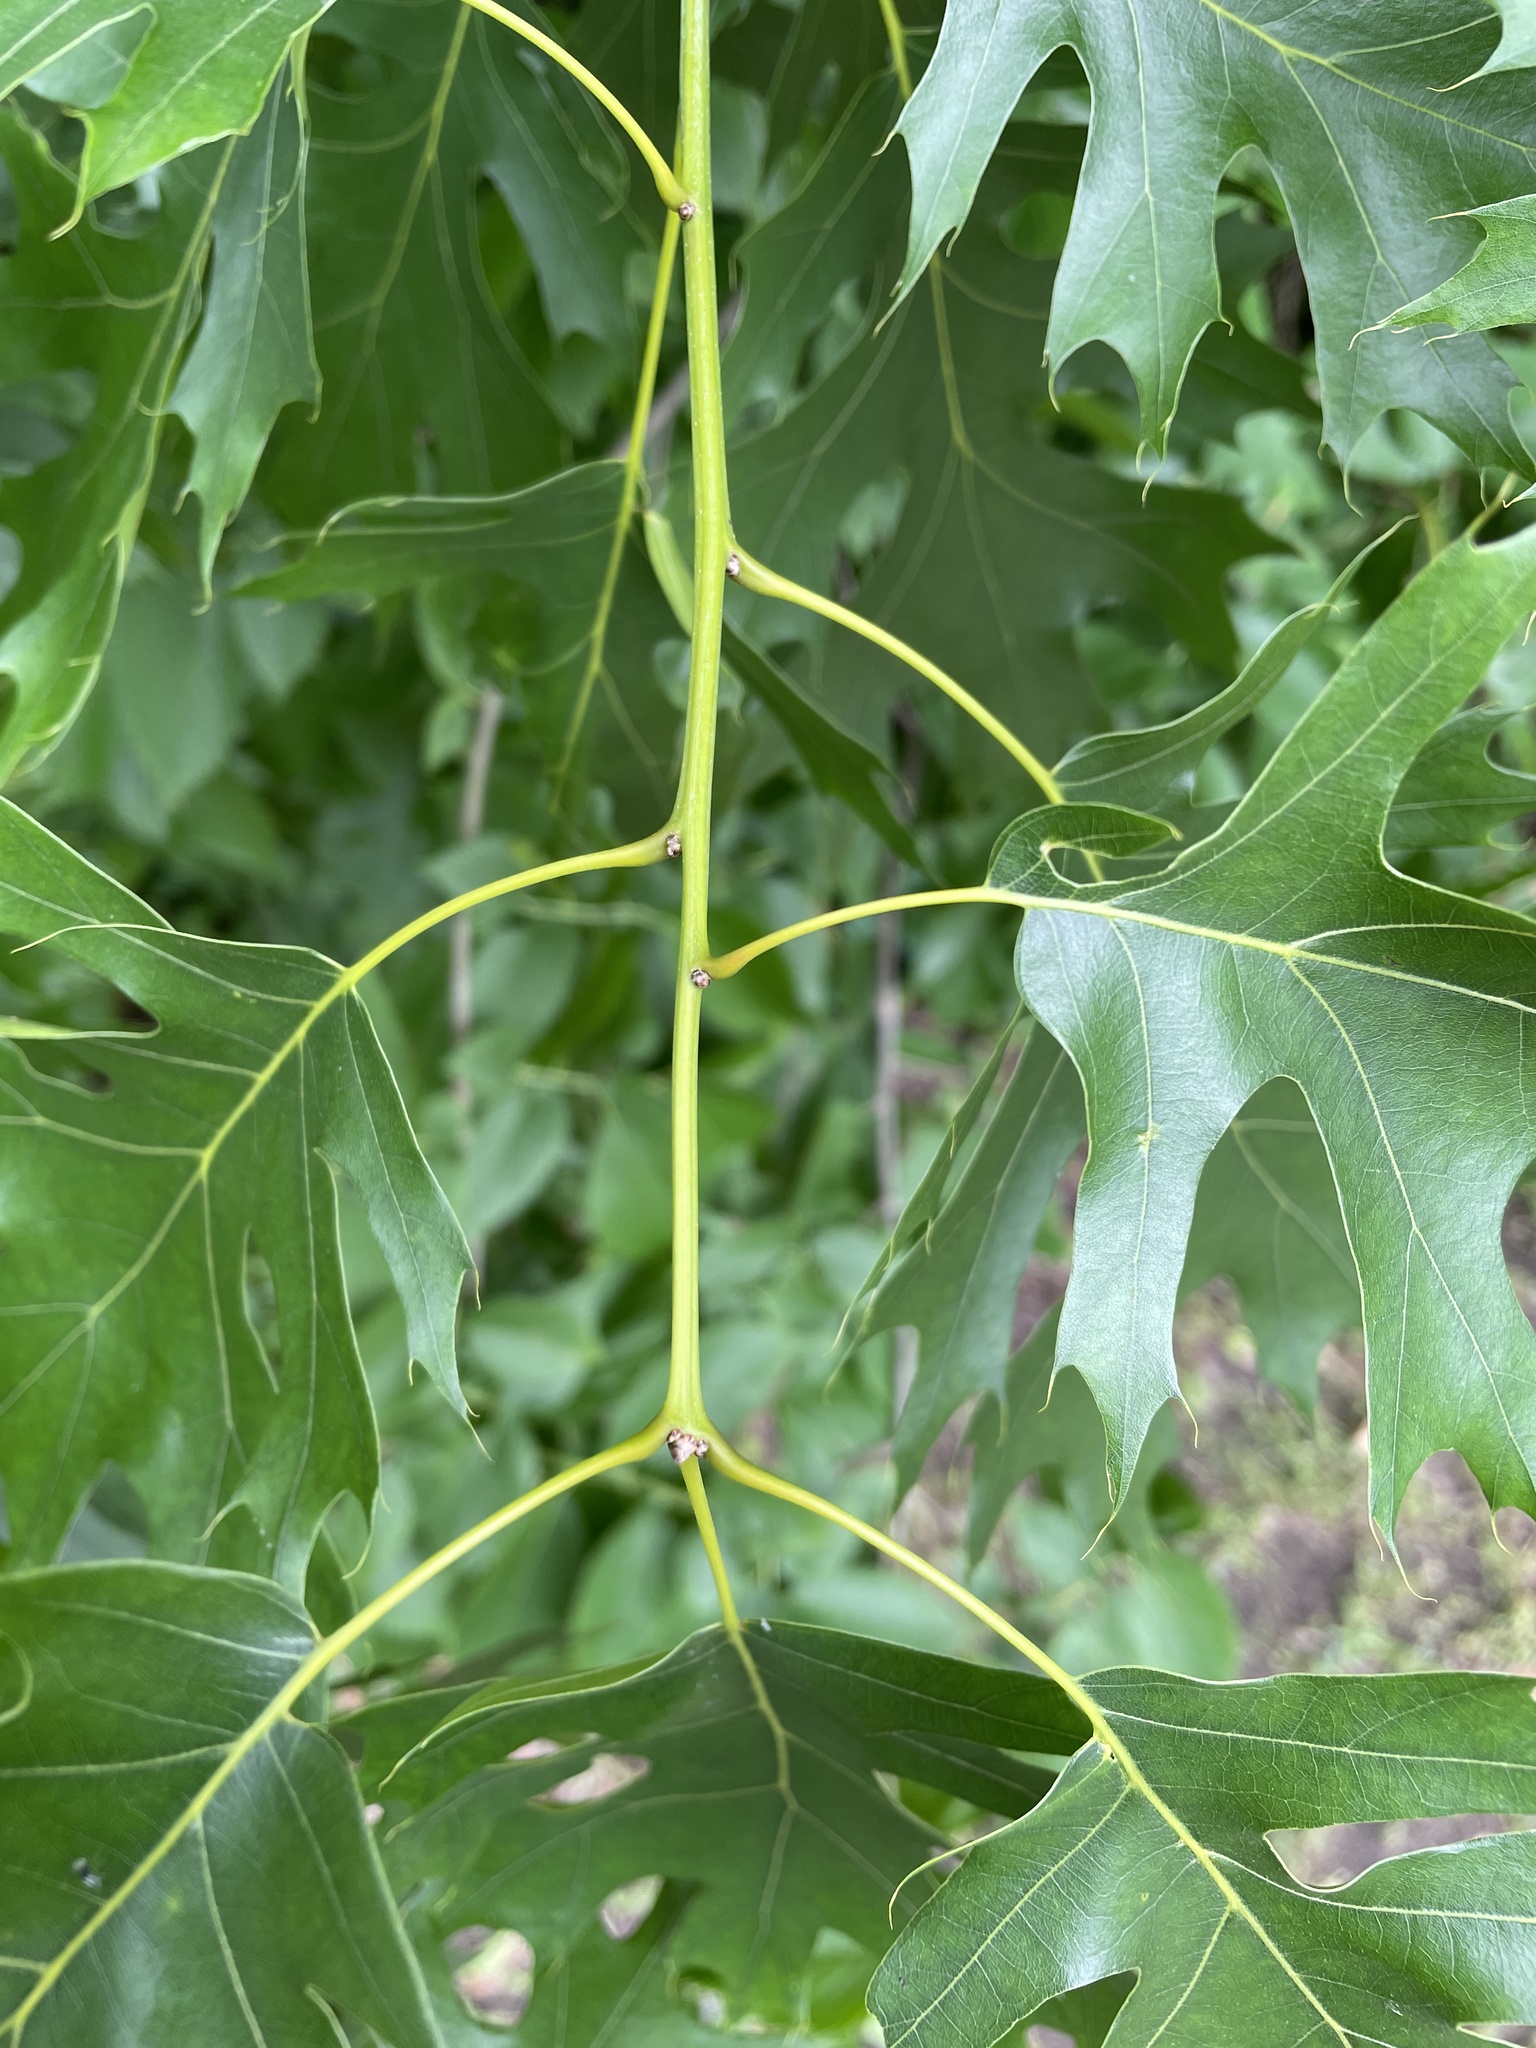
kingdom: Plantae
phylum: Tracheophyta
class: Magnoliopsida
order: Fagales
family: Fagaceae
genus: Quercus
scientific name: Quercus shumardii
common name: Shumard oak
